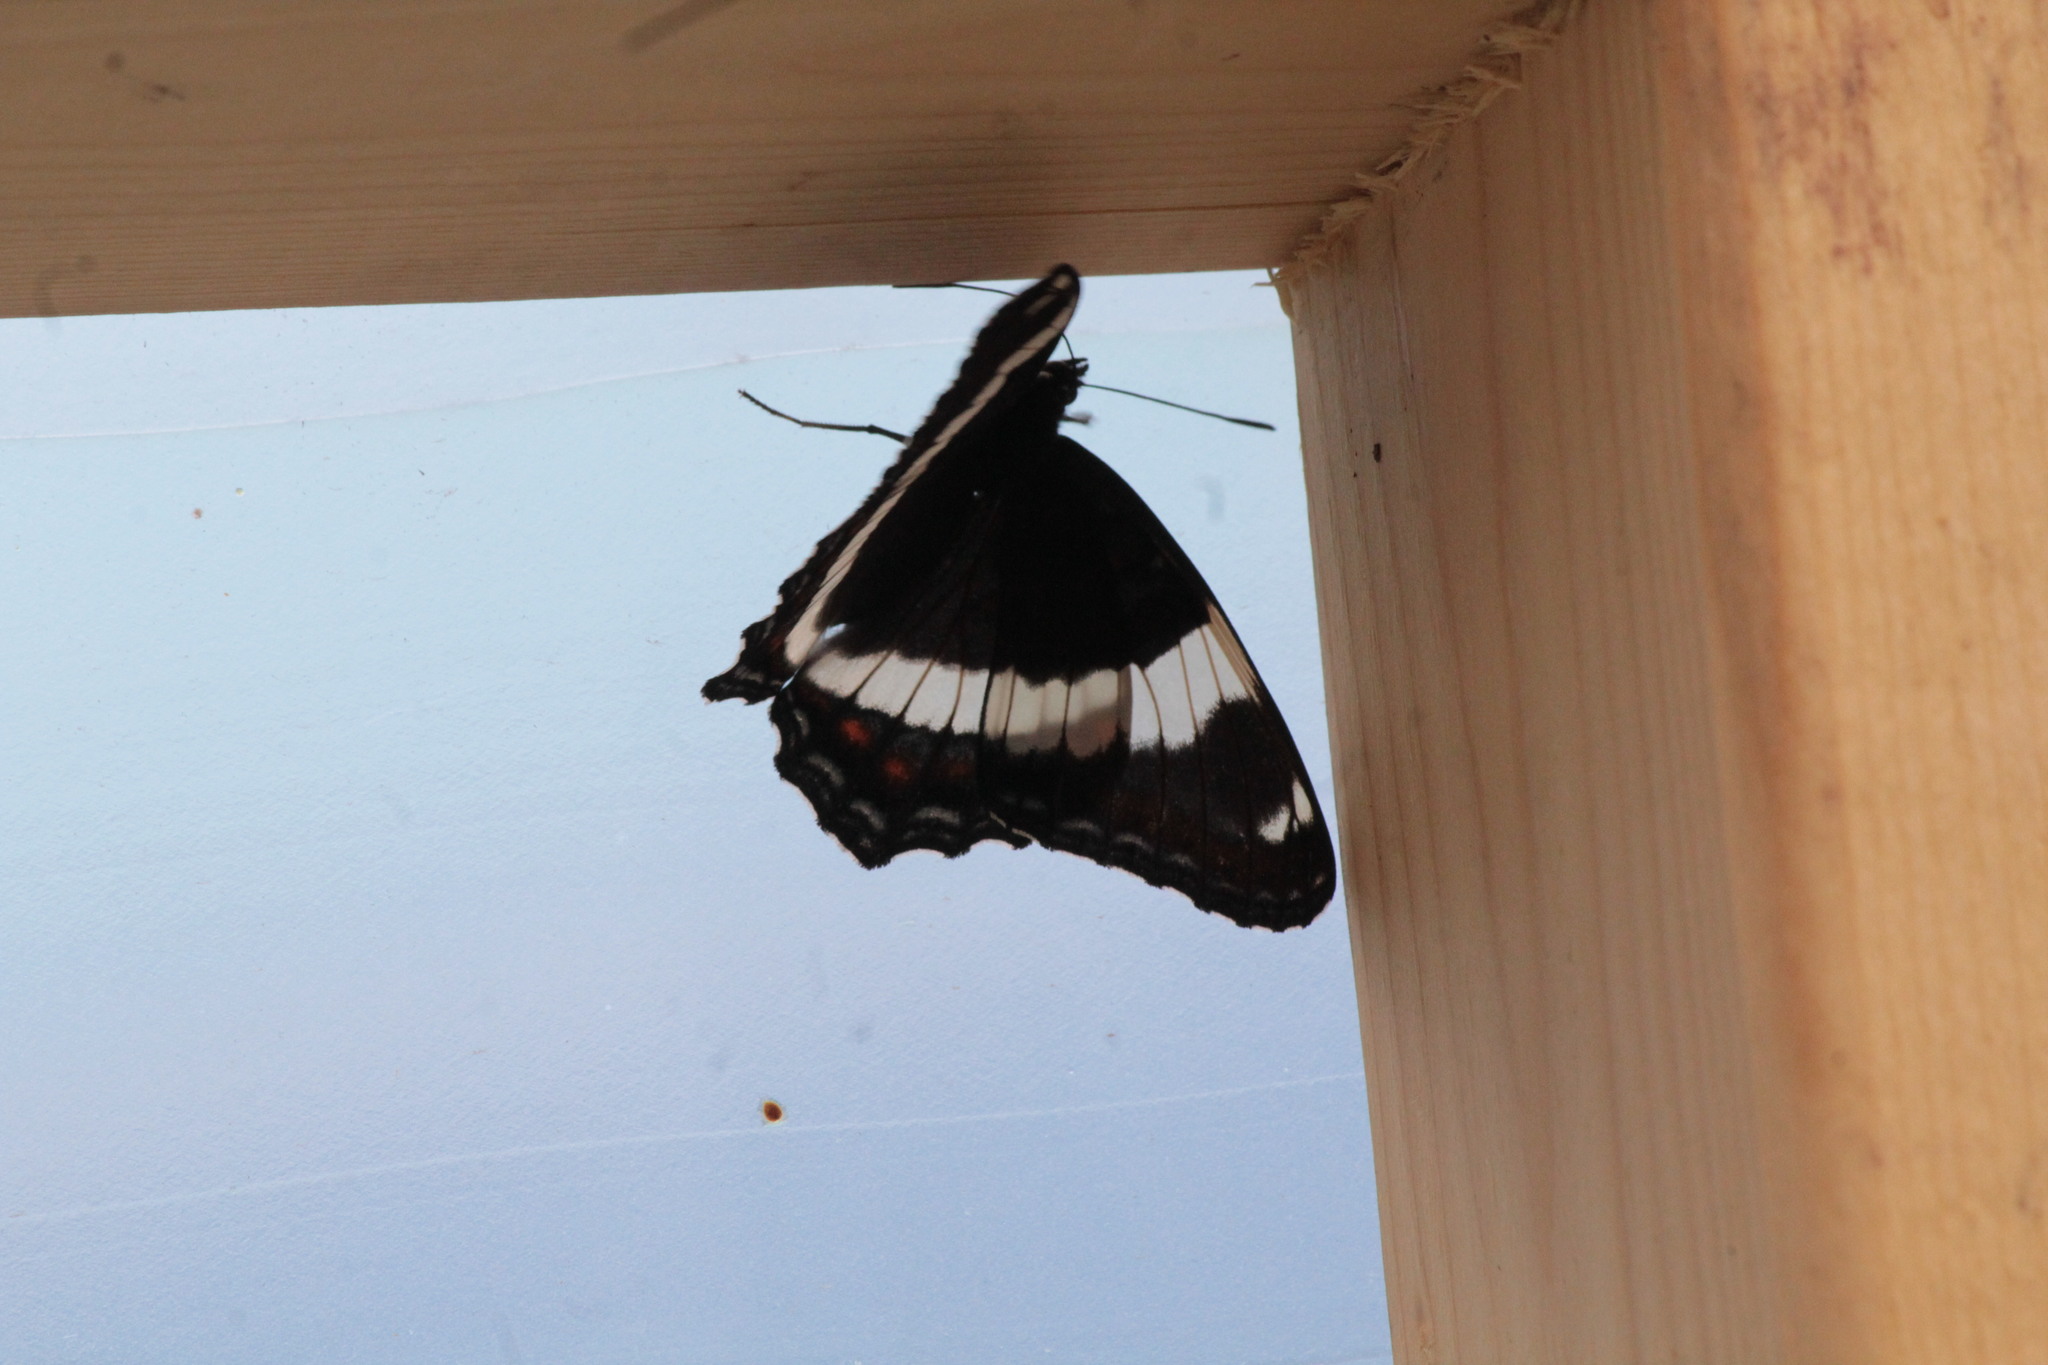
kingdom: Animalia
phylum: Arthropoda
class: Insecta
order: Lepidoptera
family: Nymphalidae
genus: Limenitis
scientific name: Limenitis arthemis
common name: Red-spotted admiral
